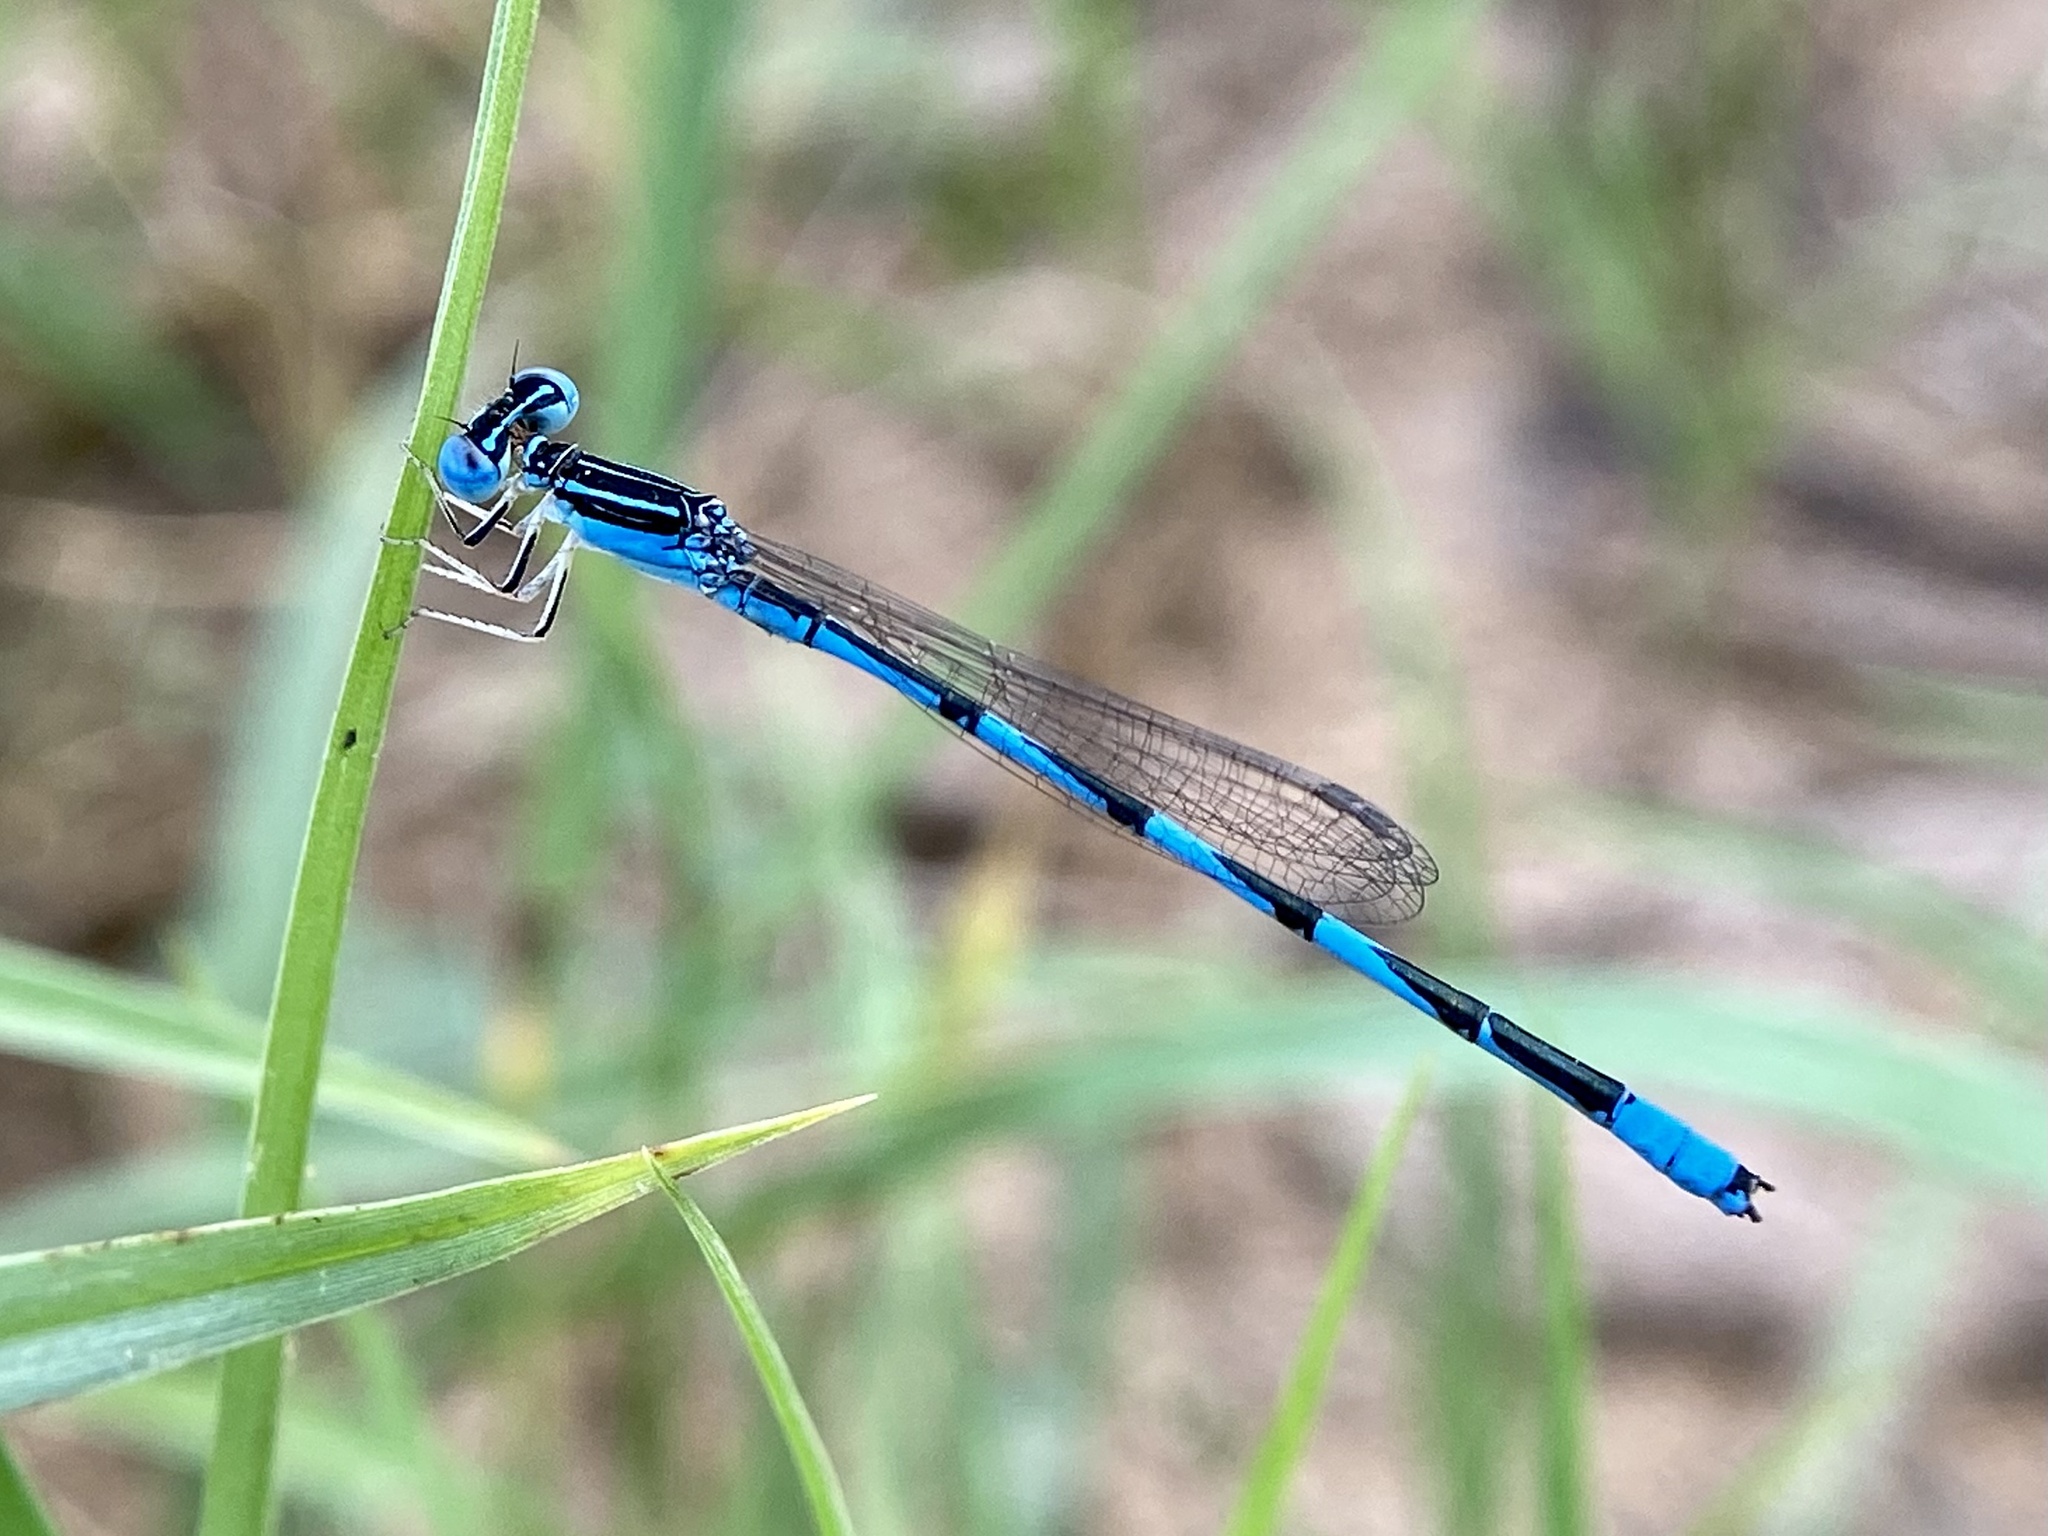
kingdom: Animalia
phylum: Arthropoda
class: Insecta
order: Odonata
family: Coenagrionidae
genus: Enallagma
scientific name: Enallagma basidens
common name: Double-striped bluet
